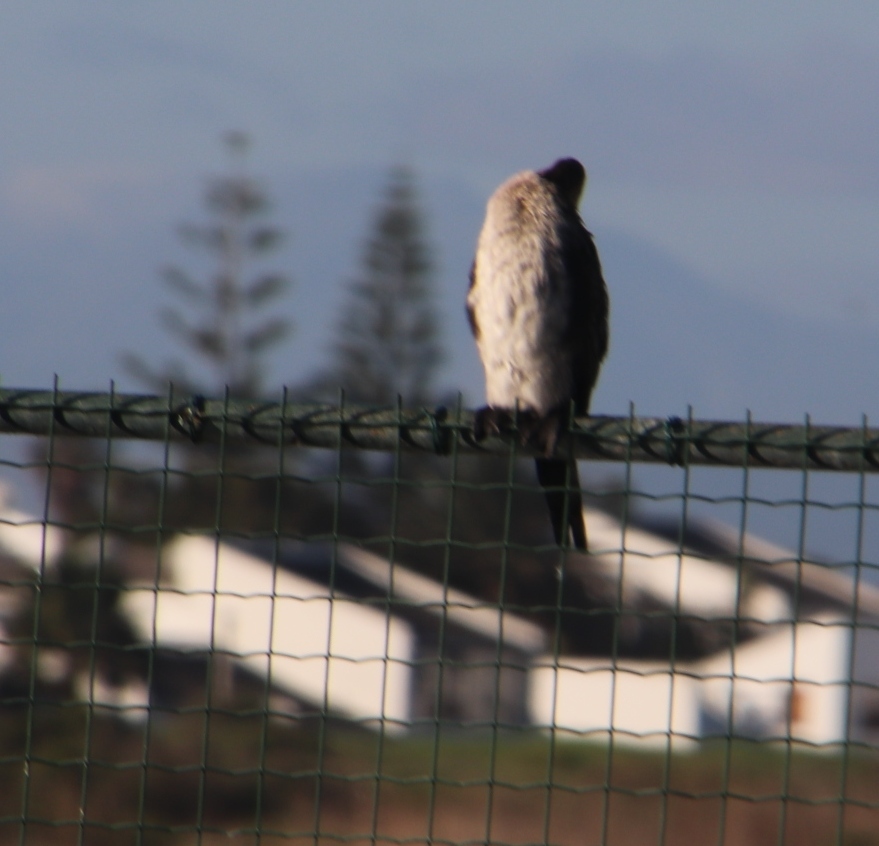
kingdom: Animalia
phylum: Chordata
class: Aves
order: Suliformes
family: Phalacrocoracidae
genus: Microcarbo
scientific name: Microcarbo africanus
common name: Long-tailed cormorant
